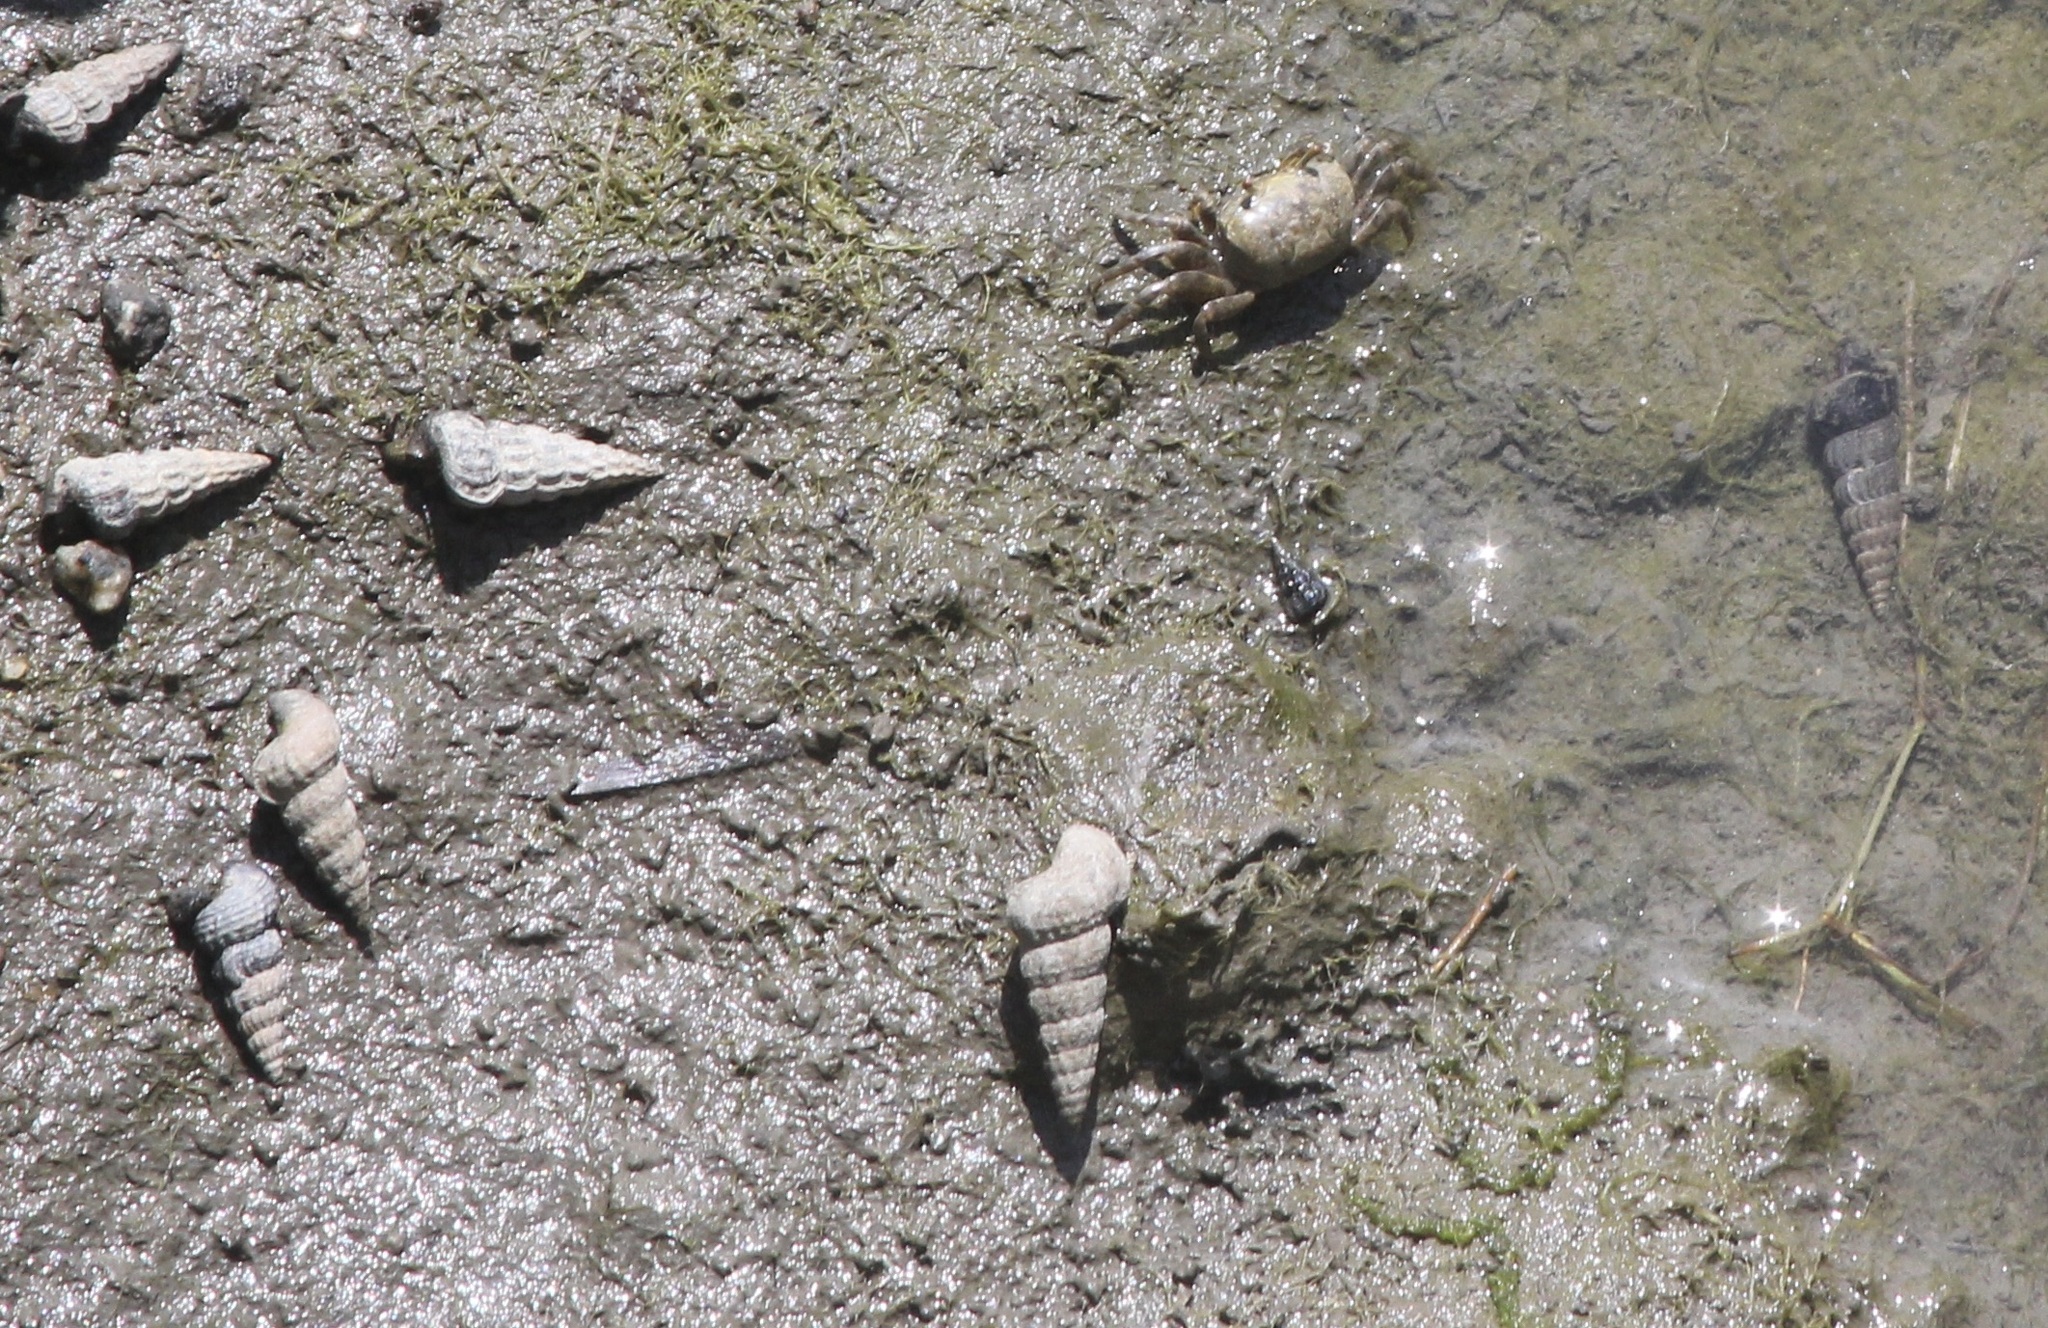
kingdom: Animalia
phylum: Arthropoda
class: Malacostraca
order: Decapoda
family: Ocypodidae
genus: Leptuca
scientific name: Leptuca crenulata
